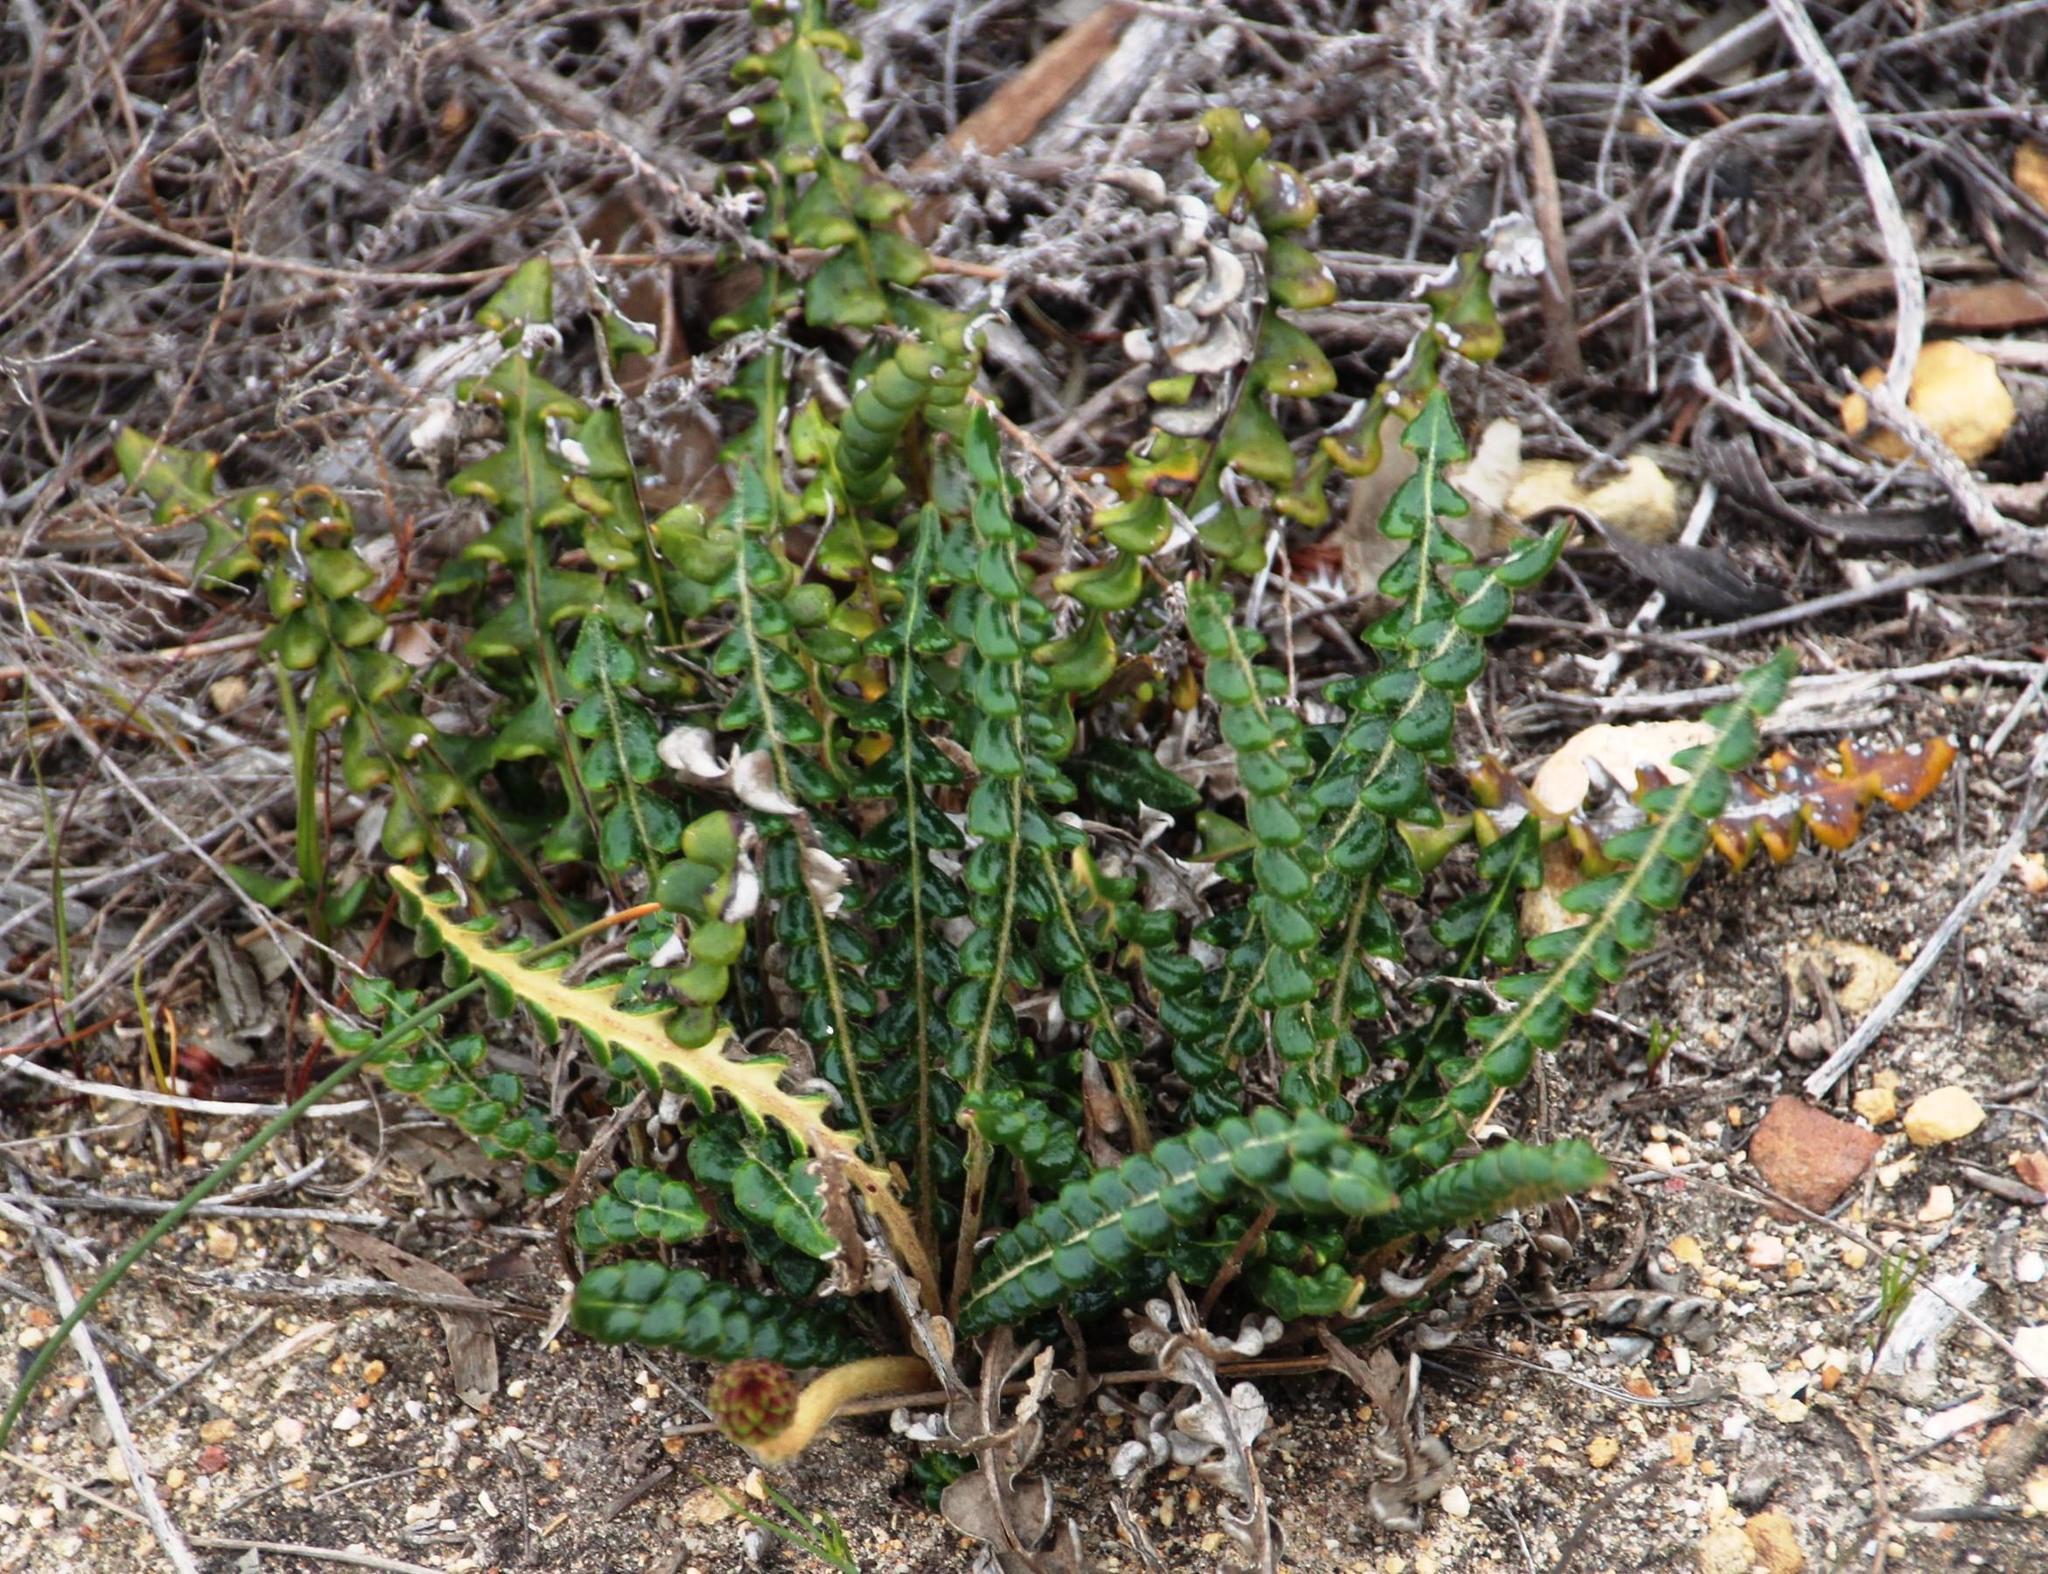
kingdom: Plantae
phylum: Tracheophyta
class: Magnoliopsida
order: Asterales
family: Asteraceae
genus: Gerbera
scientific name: Gerbera linnaei
